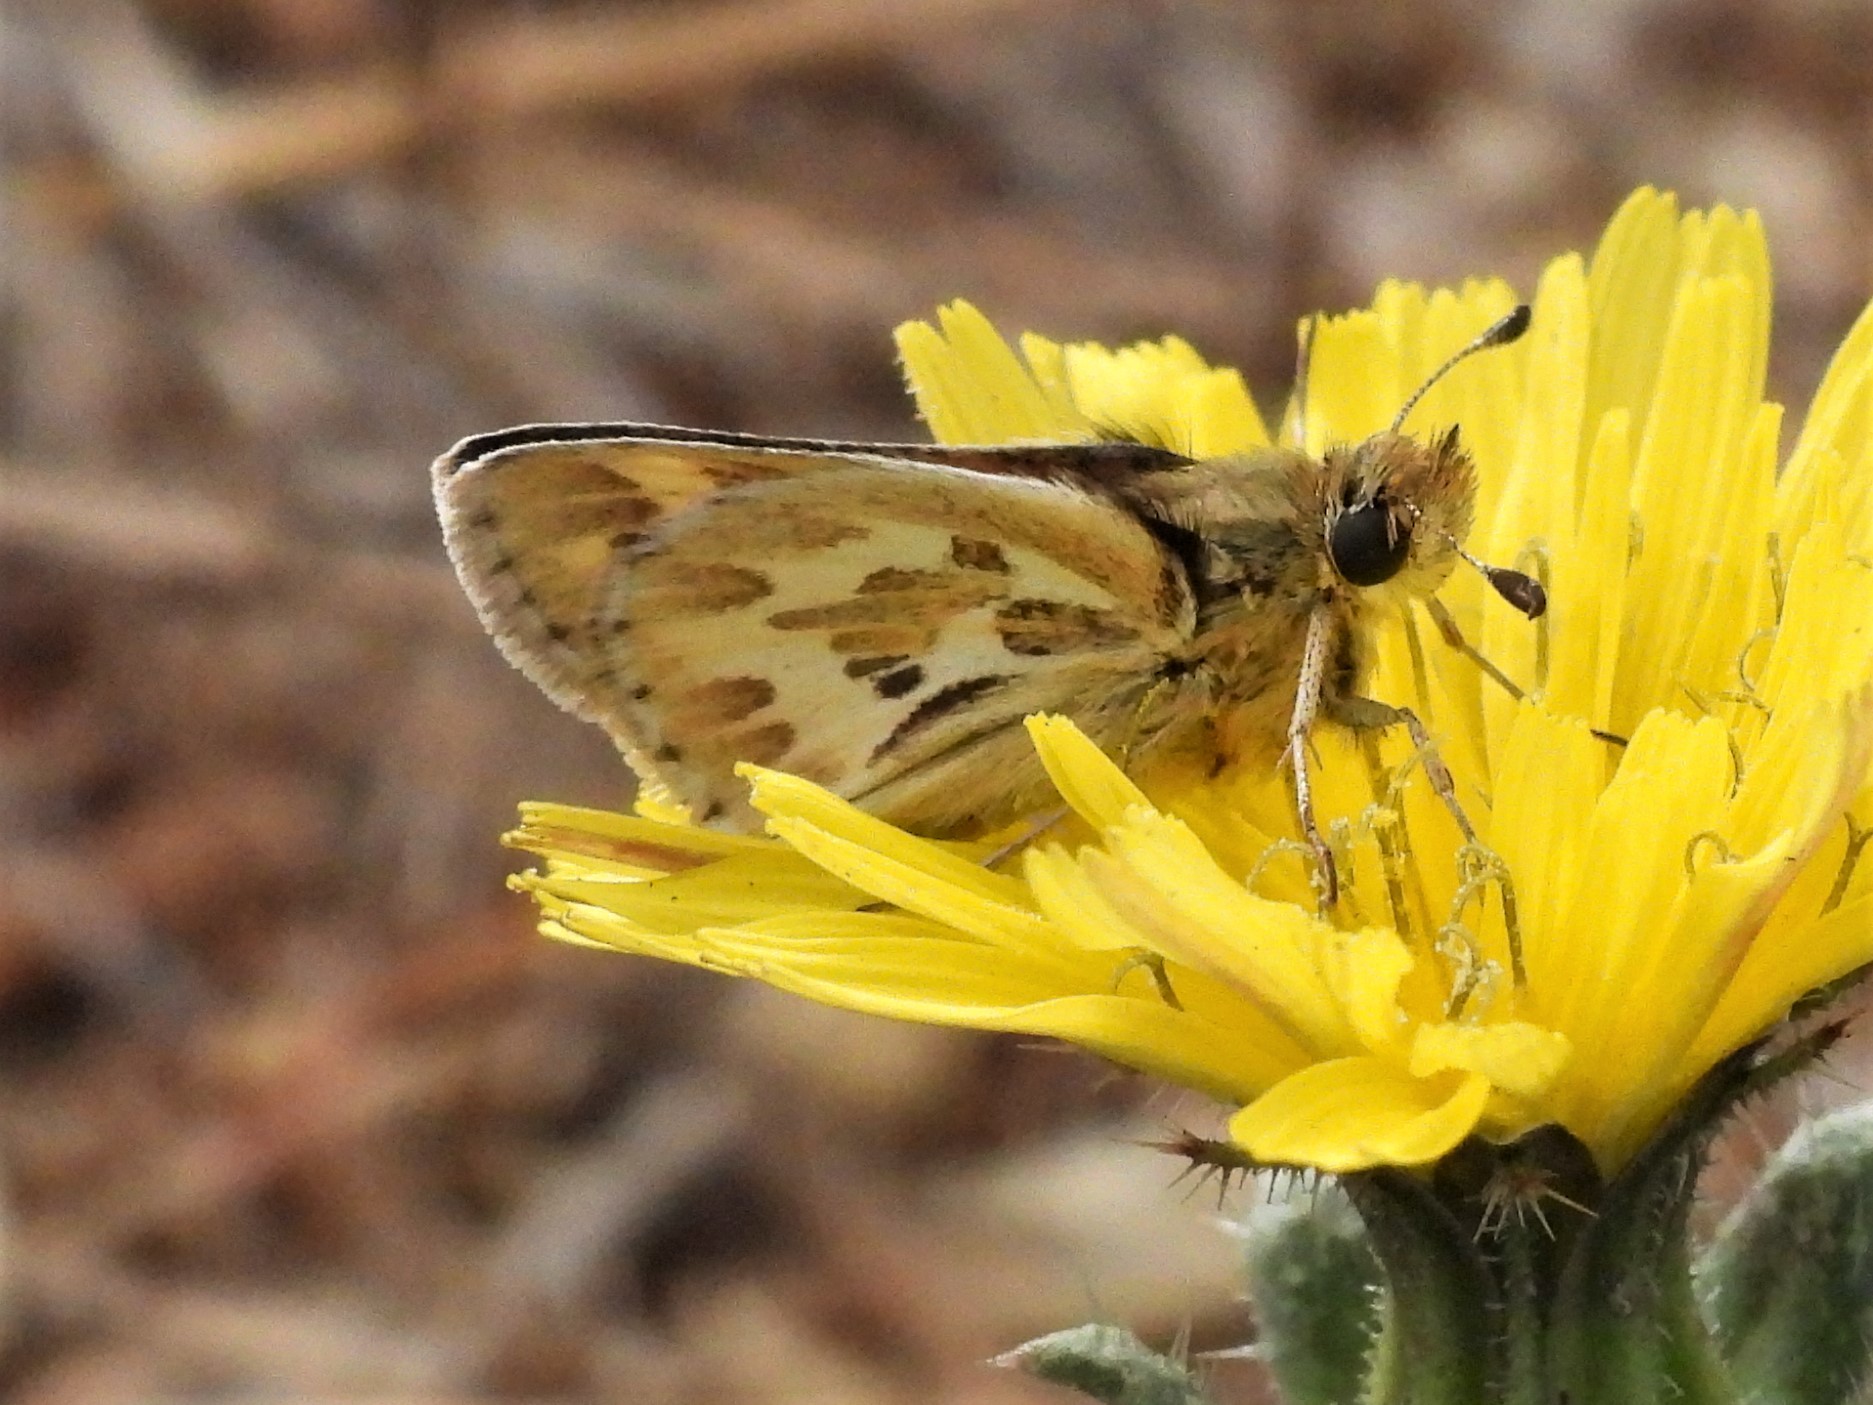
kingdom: Animalia
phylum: Arthropoda
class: Insecta
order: Lepidoptera
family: Hesperiidae
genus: Polites
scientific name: Polites sabuleti
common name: Sandhill skipper
